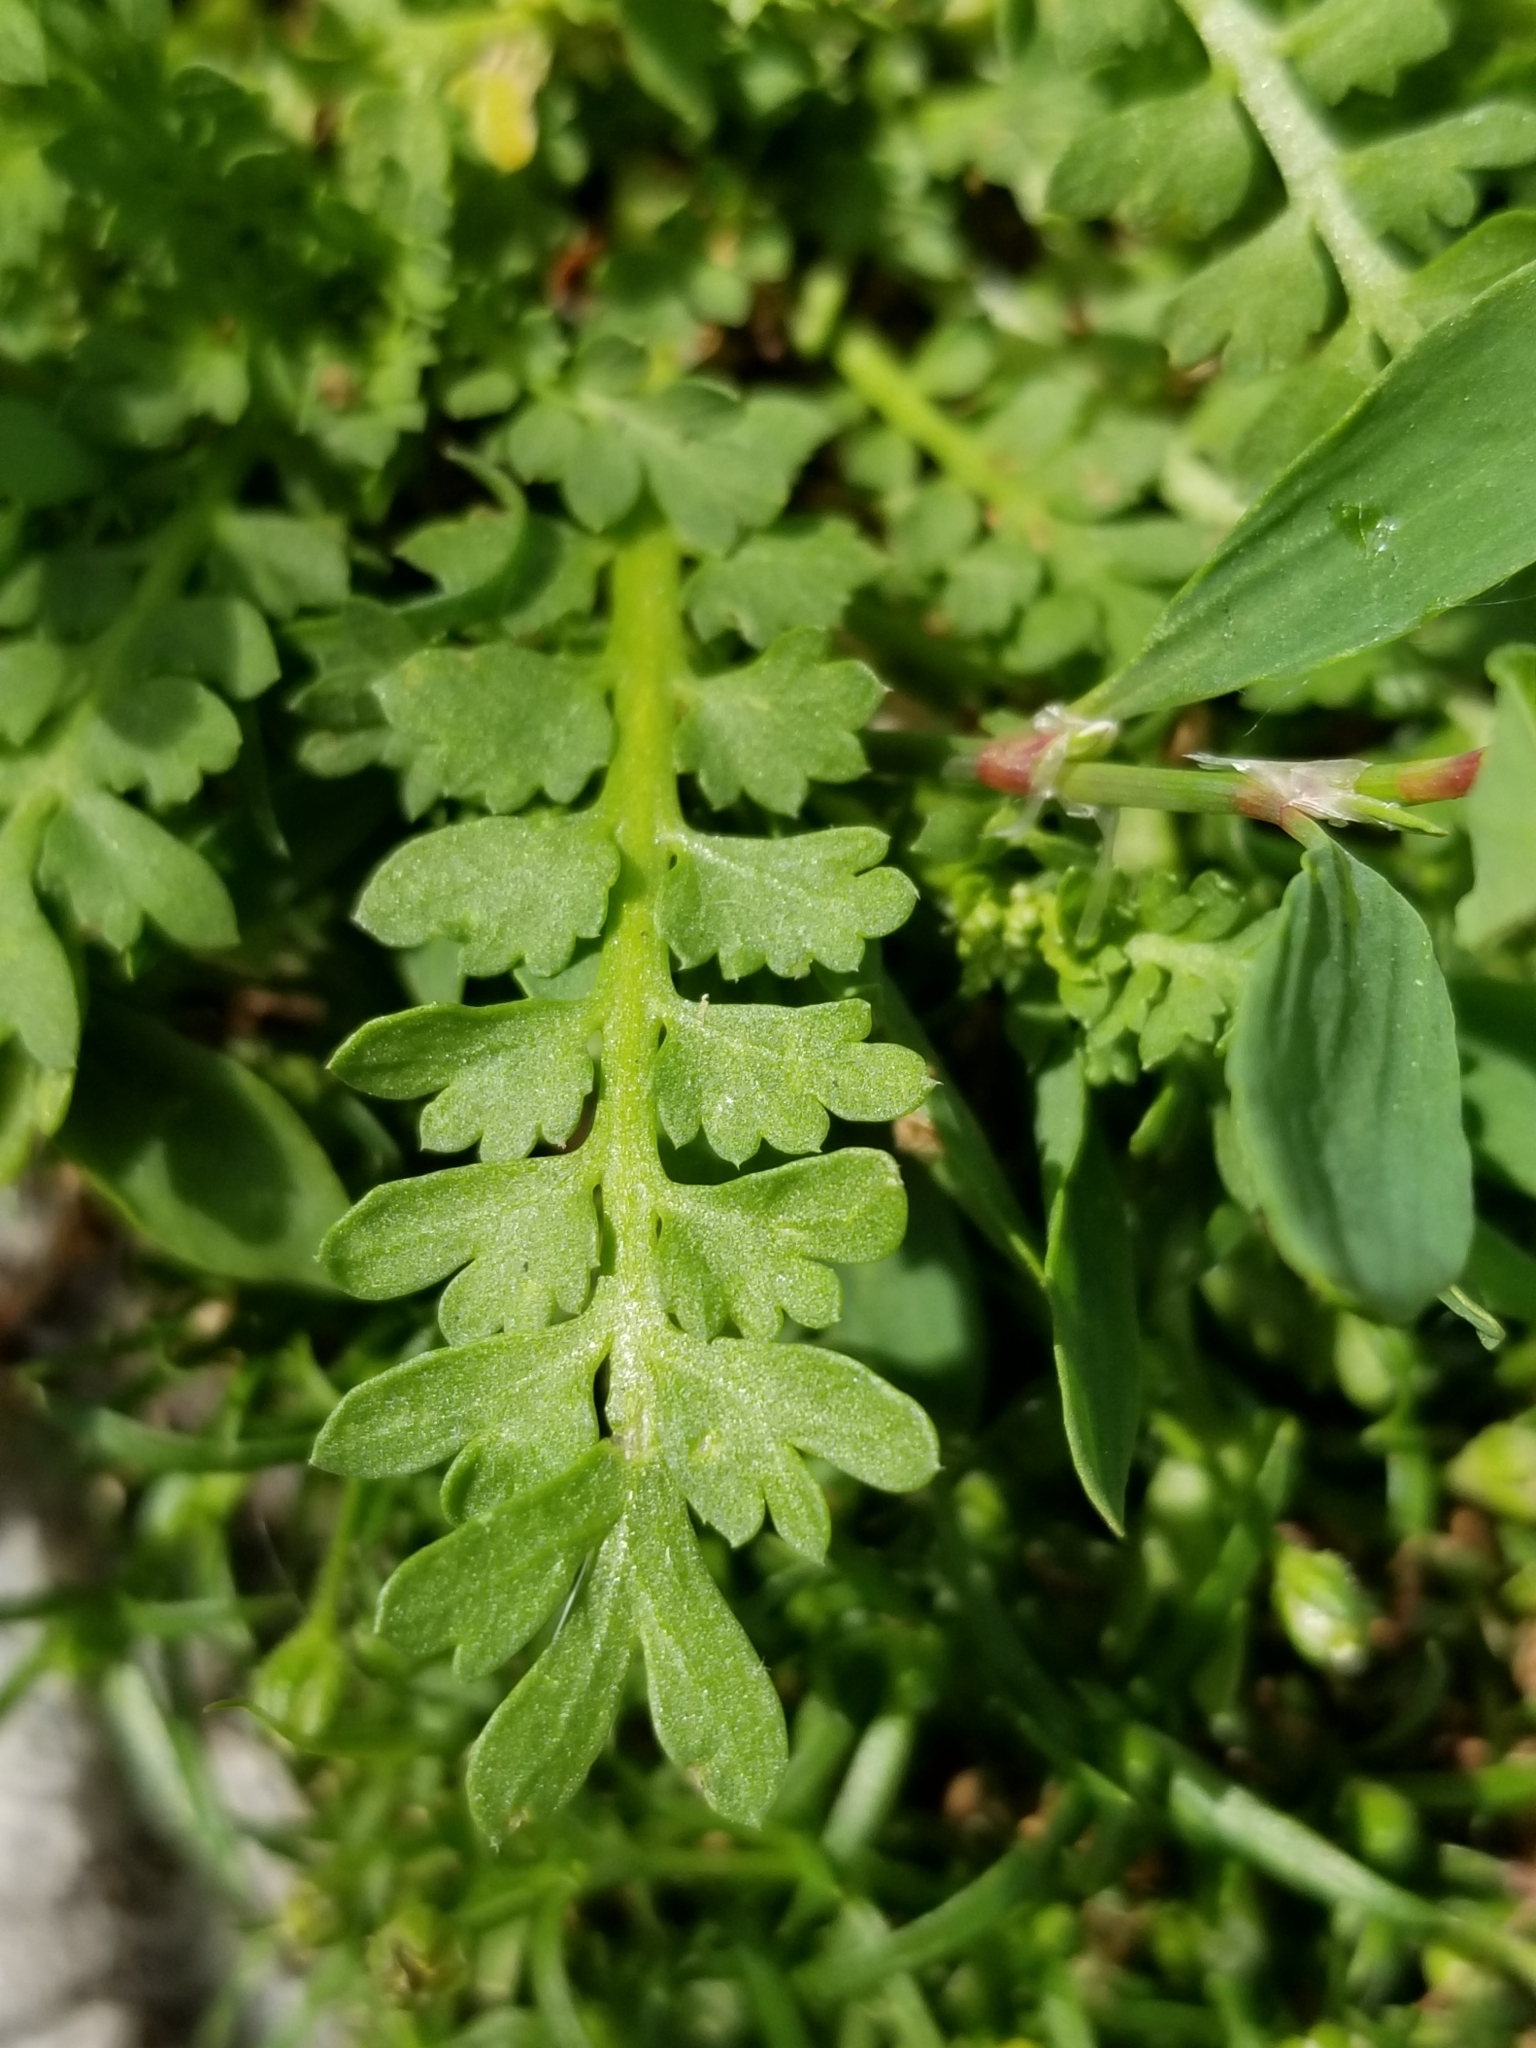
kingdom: Plantae
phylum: Tracheophyta
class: Magnoliopsida
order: Brassicales
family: Brassicaceae
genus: Lepidium
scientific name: Lepidium didymum
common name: Lesser swinecress
